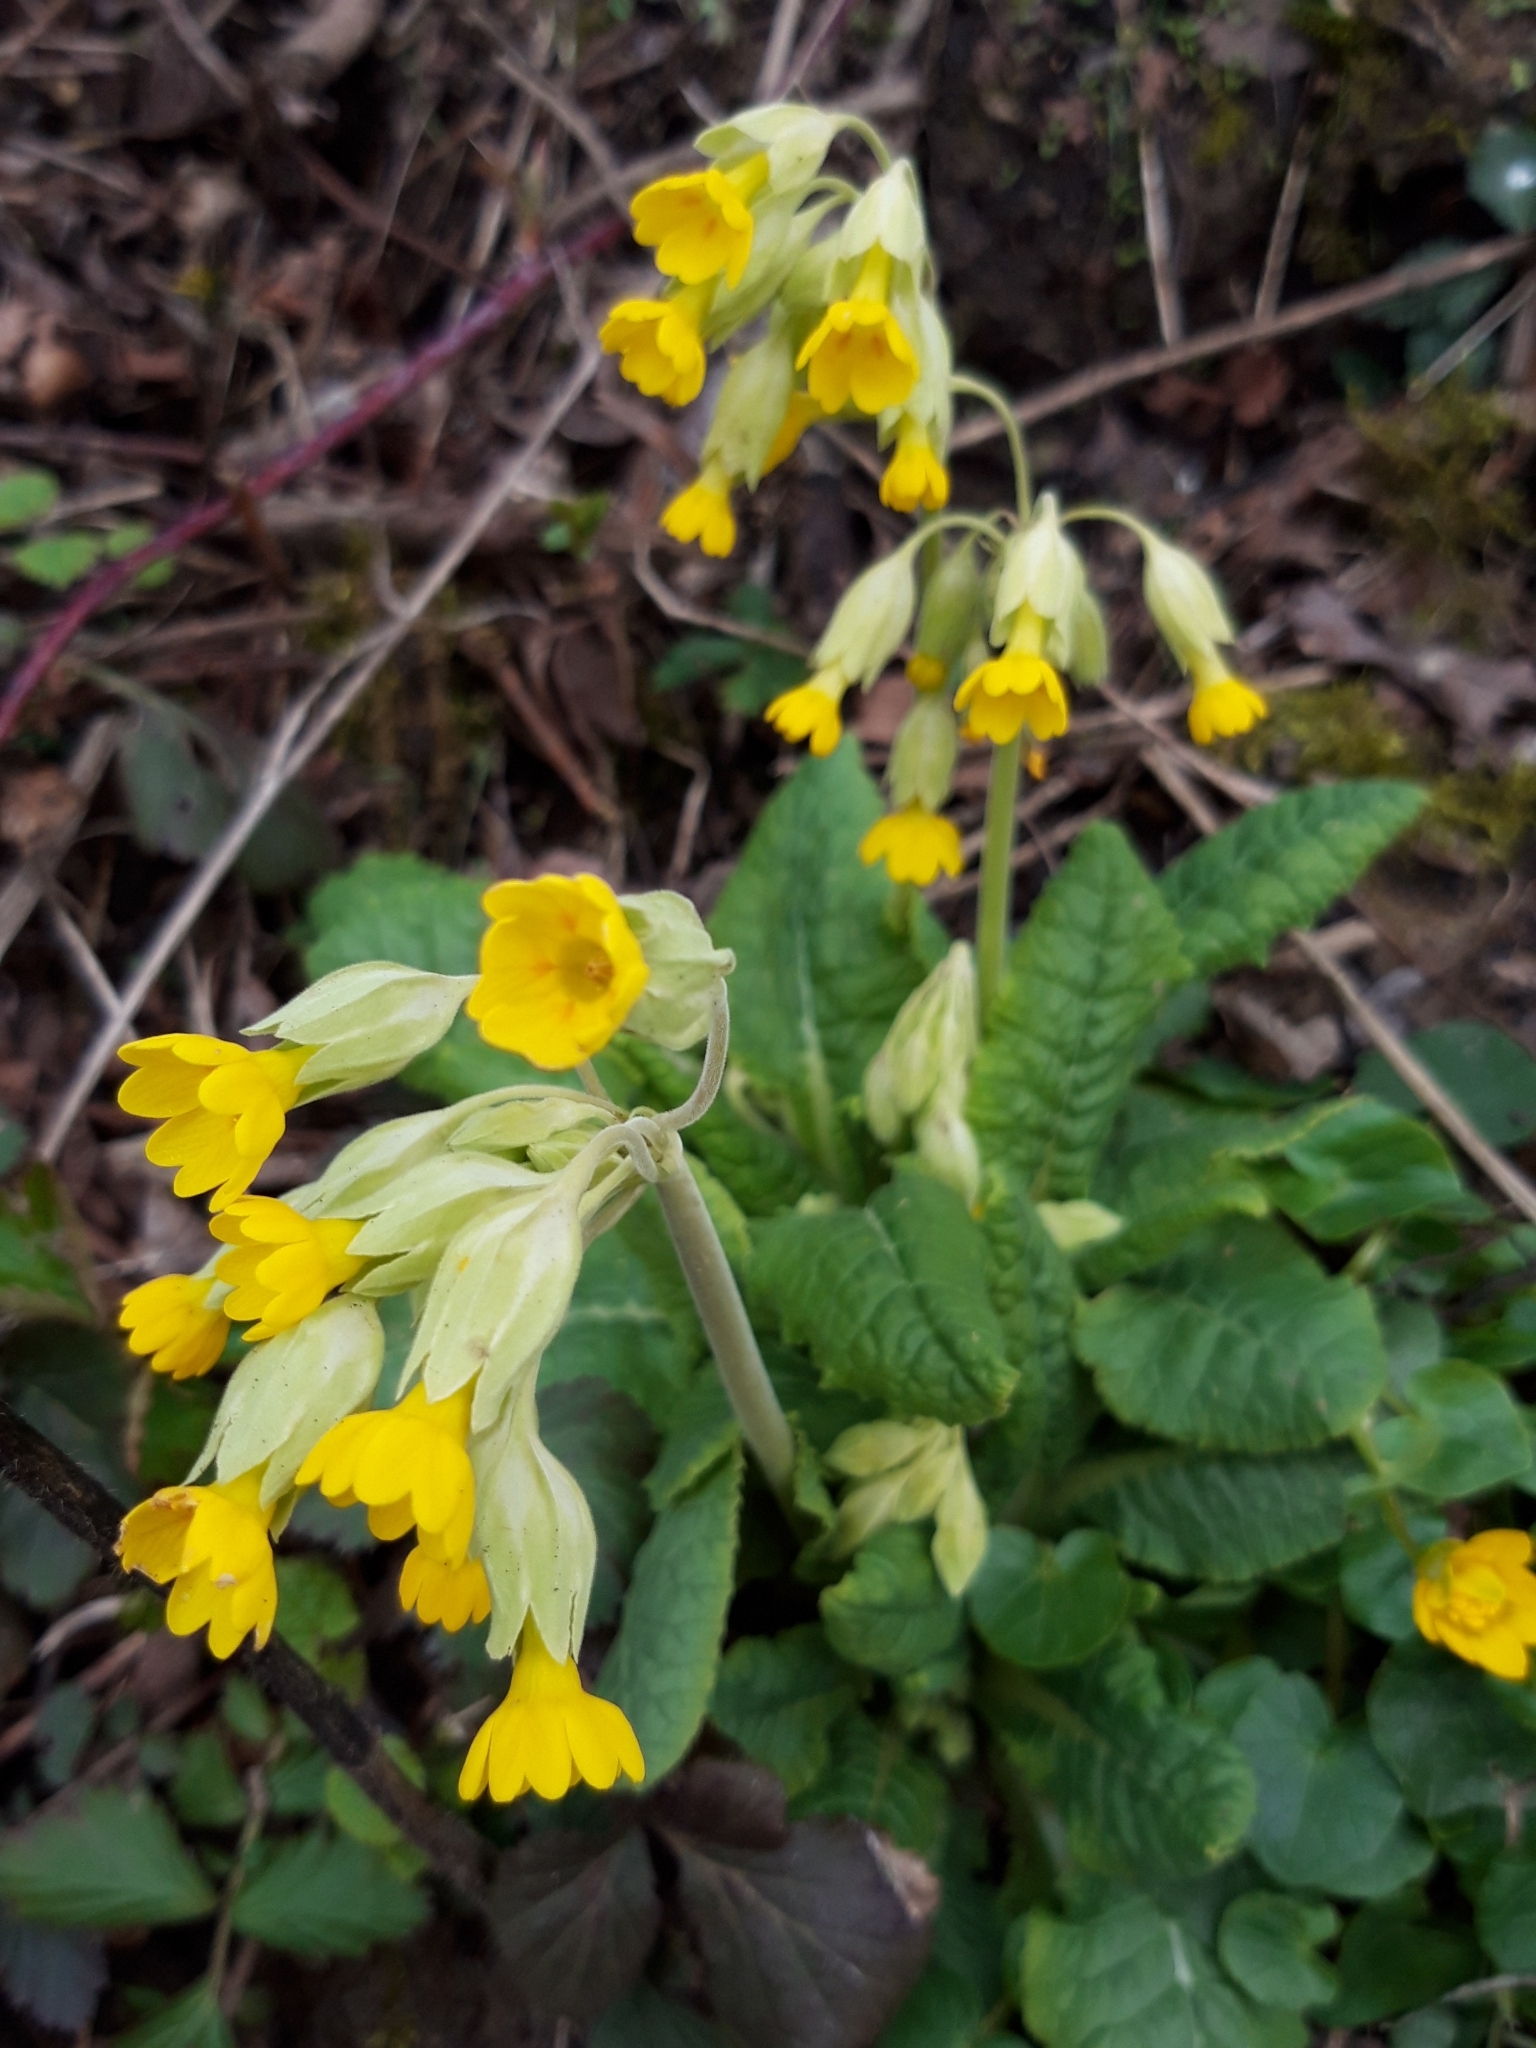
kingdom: Plantae
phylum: Tracheophyta
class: Magnoliopsida
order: Ericales
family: Primulaceae
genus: Primula
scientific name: Primula veris
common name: Cowslip
